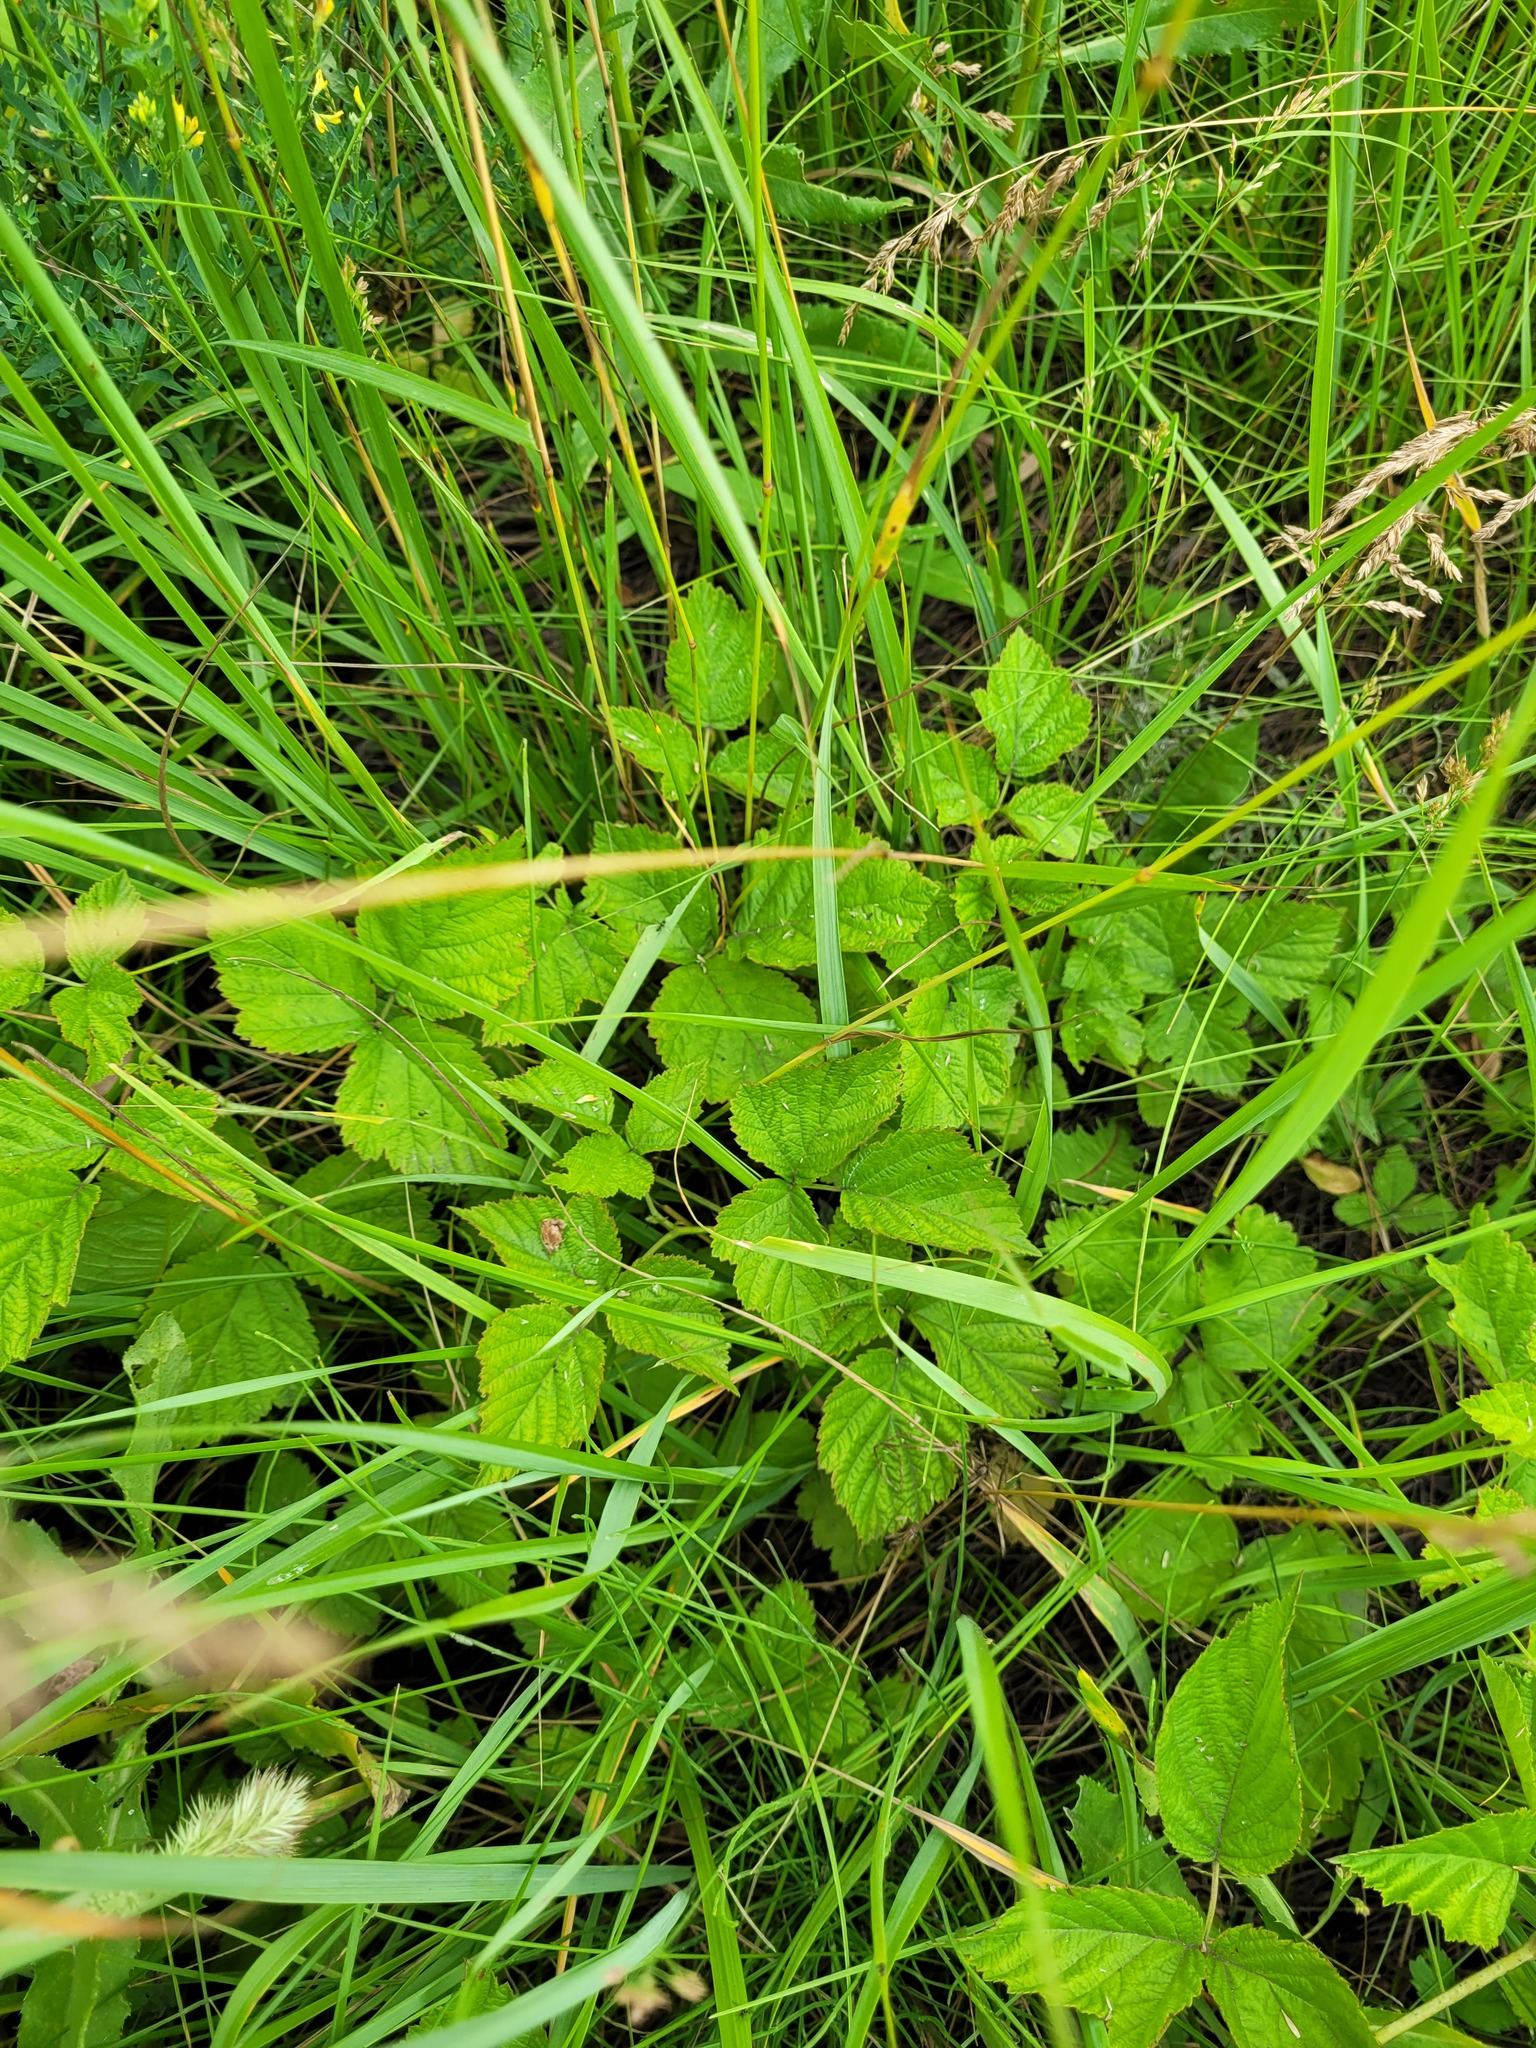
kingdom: Plantae
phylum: Tracheophyta
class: Magnoliopsida
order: Rosales
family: Rosaceae
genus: Rubus
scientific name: Rubus saxatilis
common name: Stone bramble
